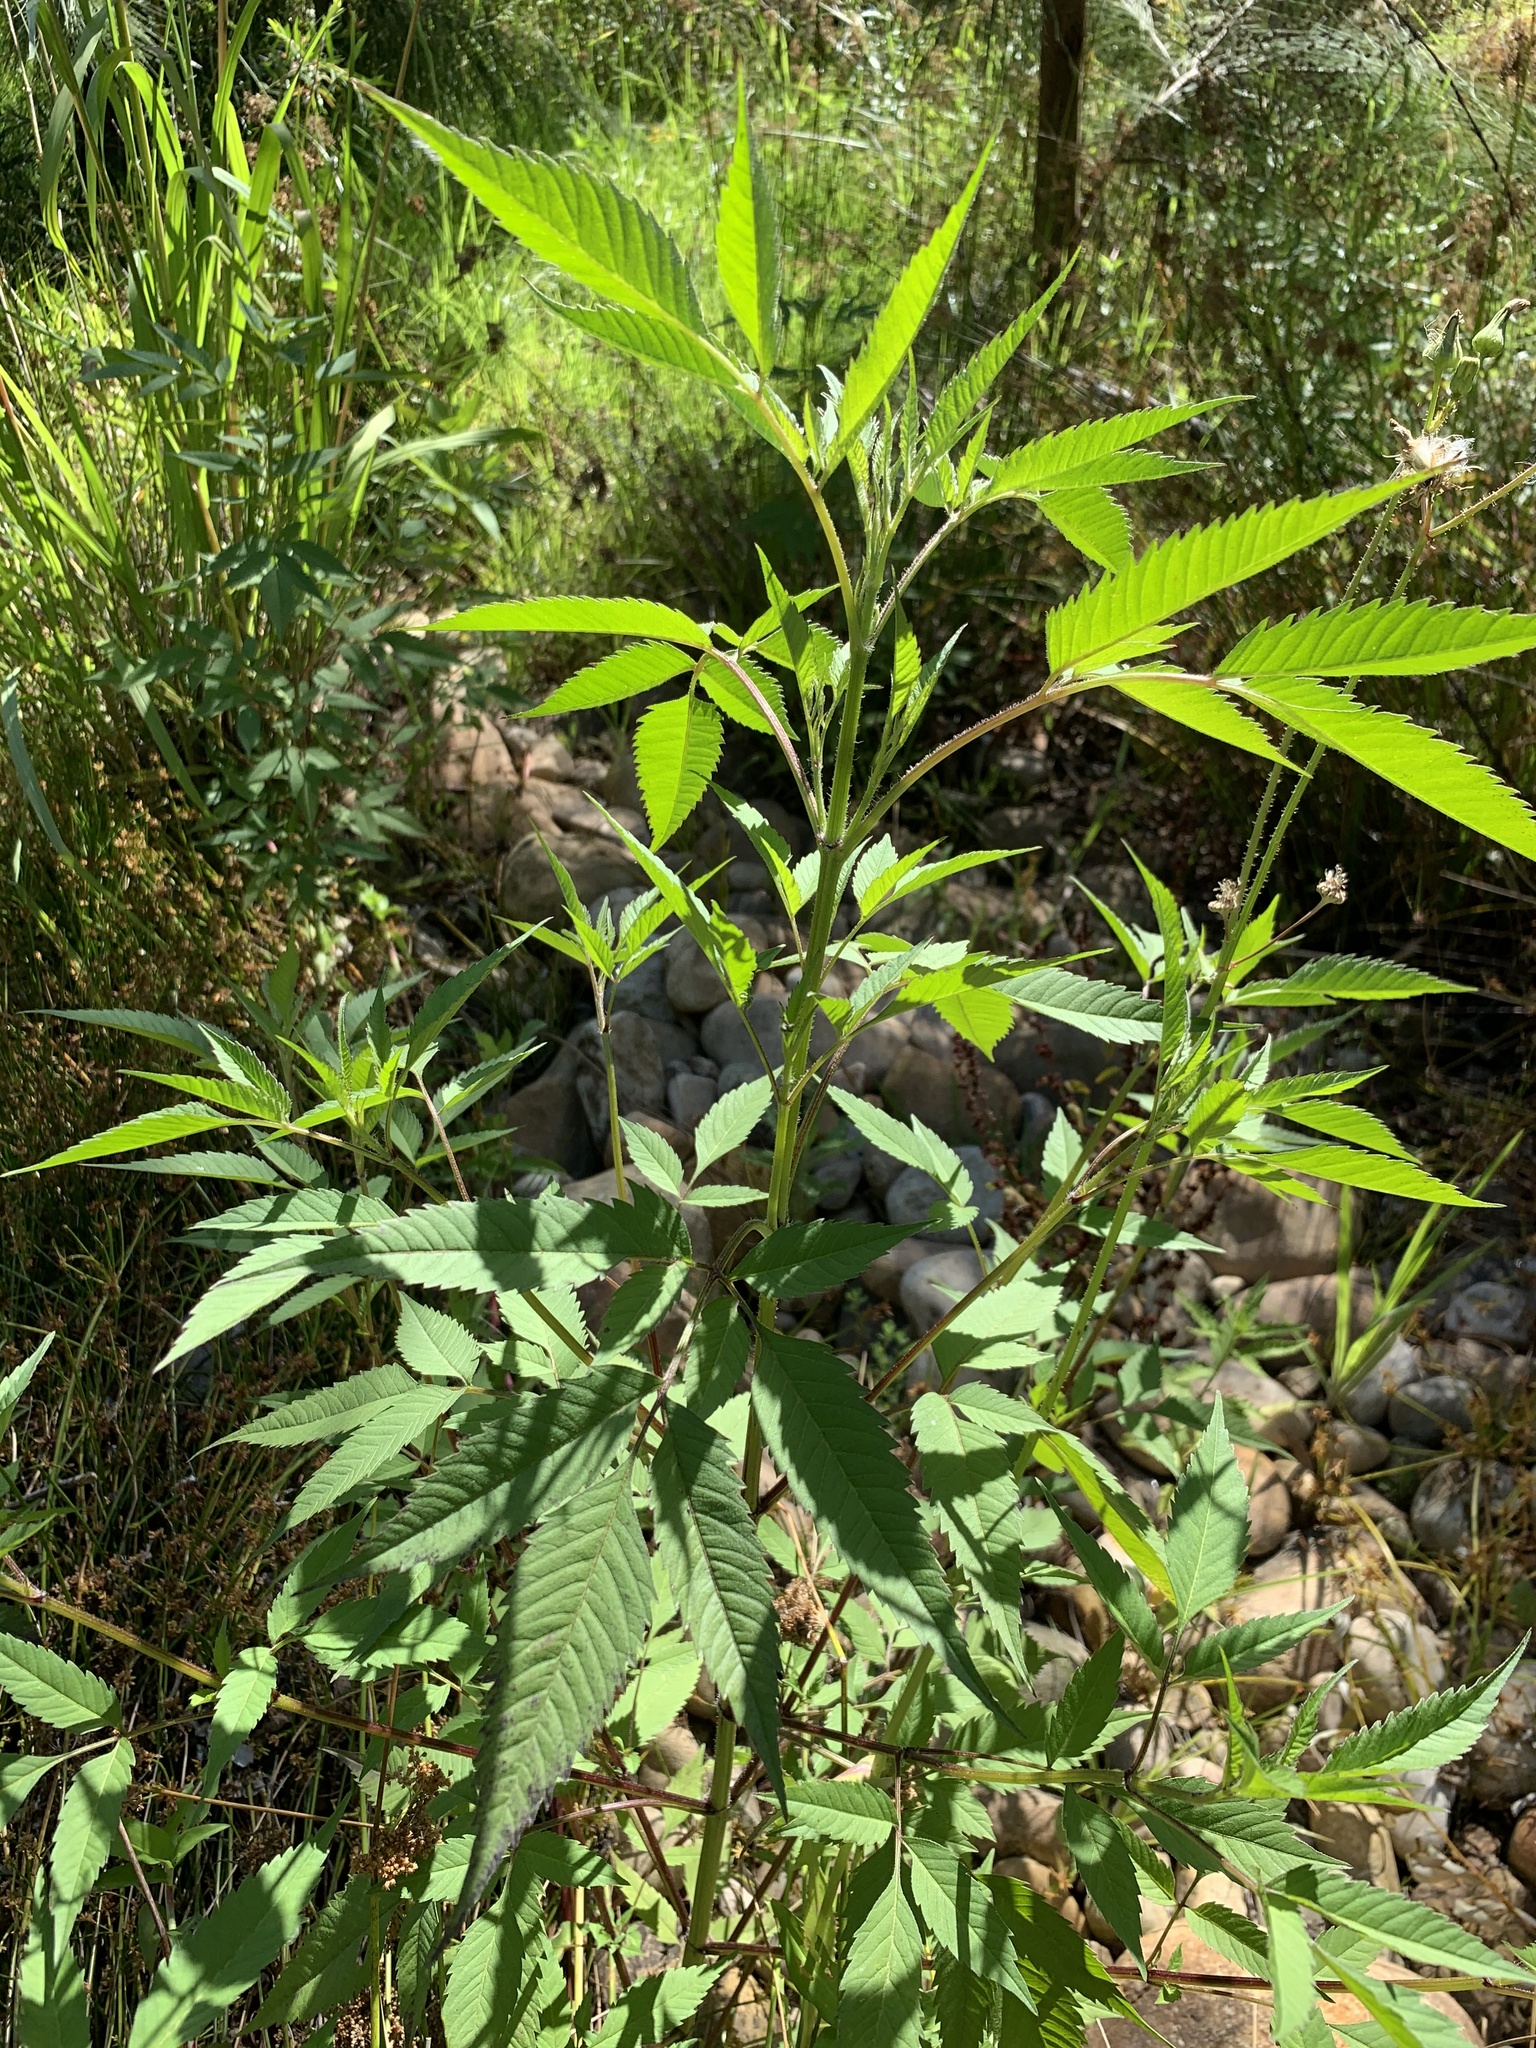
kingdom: Plantae
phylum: Tracheophyta
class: Magnoliopsida
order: Asterales
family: Asteraceae
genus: Bidens
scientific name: Bidens frondosa
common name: Beggarticks
